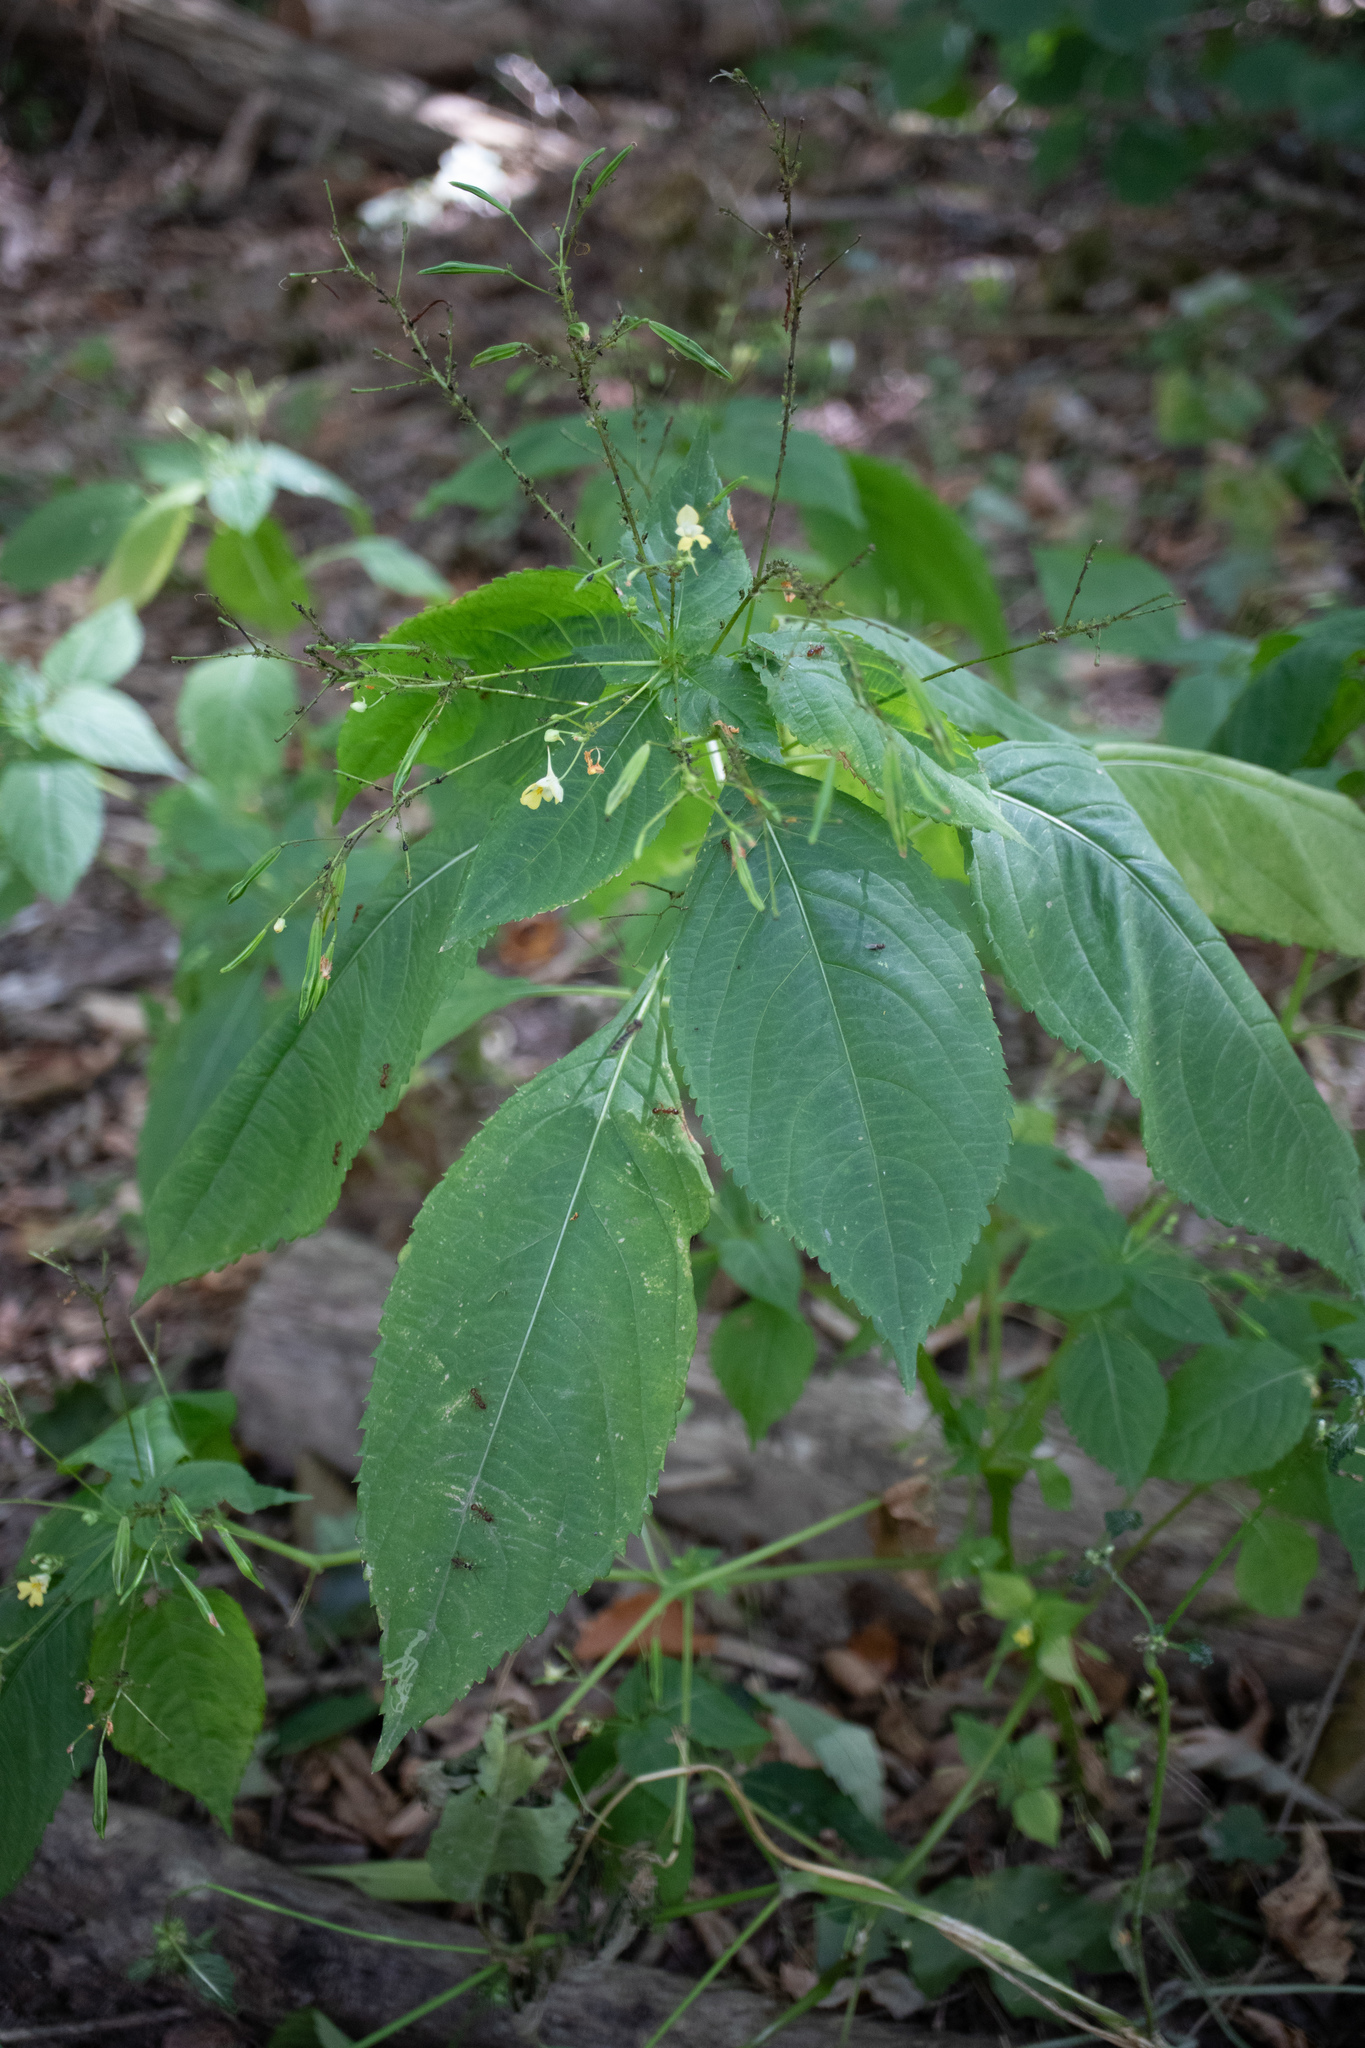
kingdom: Plantae
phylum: Tracheophyta
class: Magnoliopsida
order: Ericales
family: Balsaminaceae
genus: Impatiens
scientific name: Impatiens parviflora
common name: Small balsam
